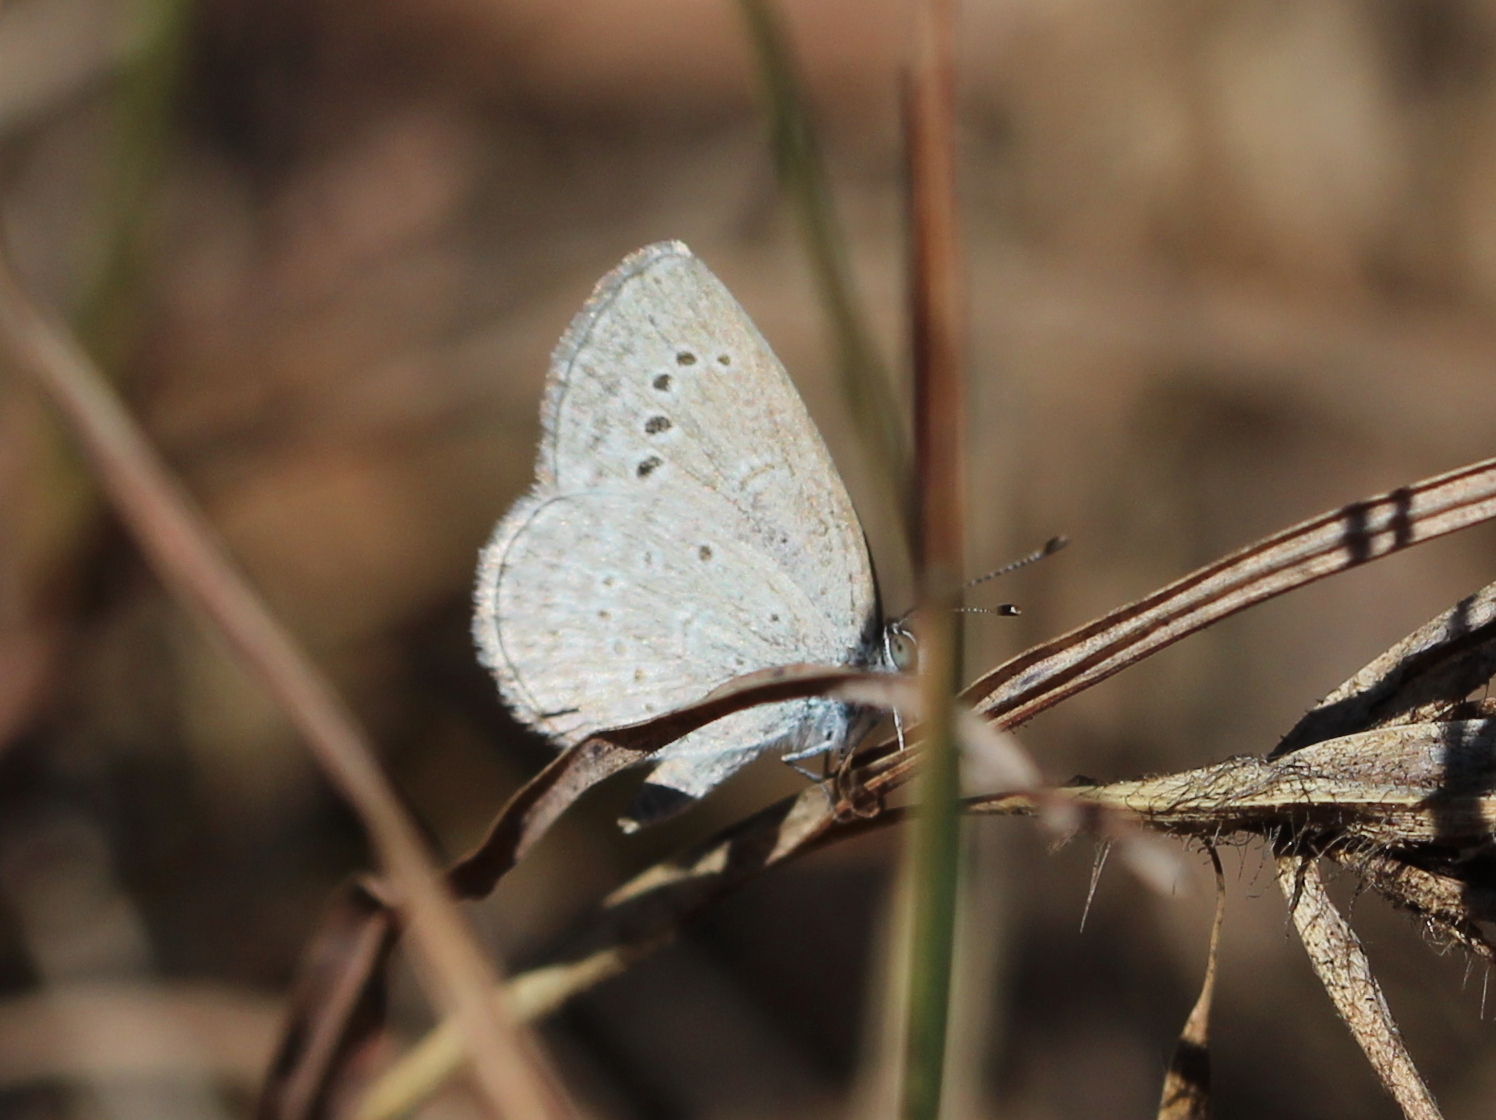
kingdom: Animalia
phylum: Arthropoda
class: Insecta
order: Lepidoptera
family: Lycaenidae
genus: Pseudozizeeria
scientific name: Pseudozizeeria maha
